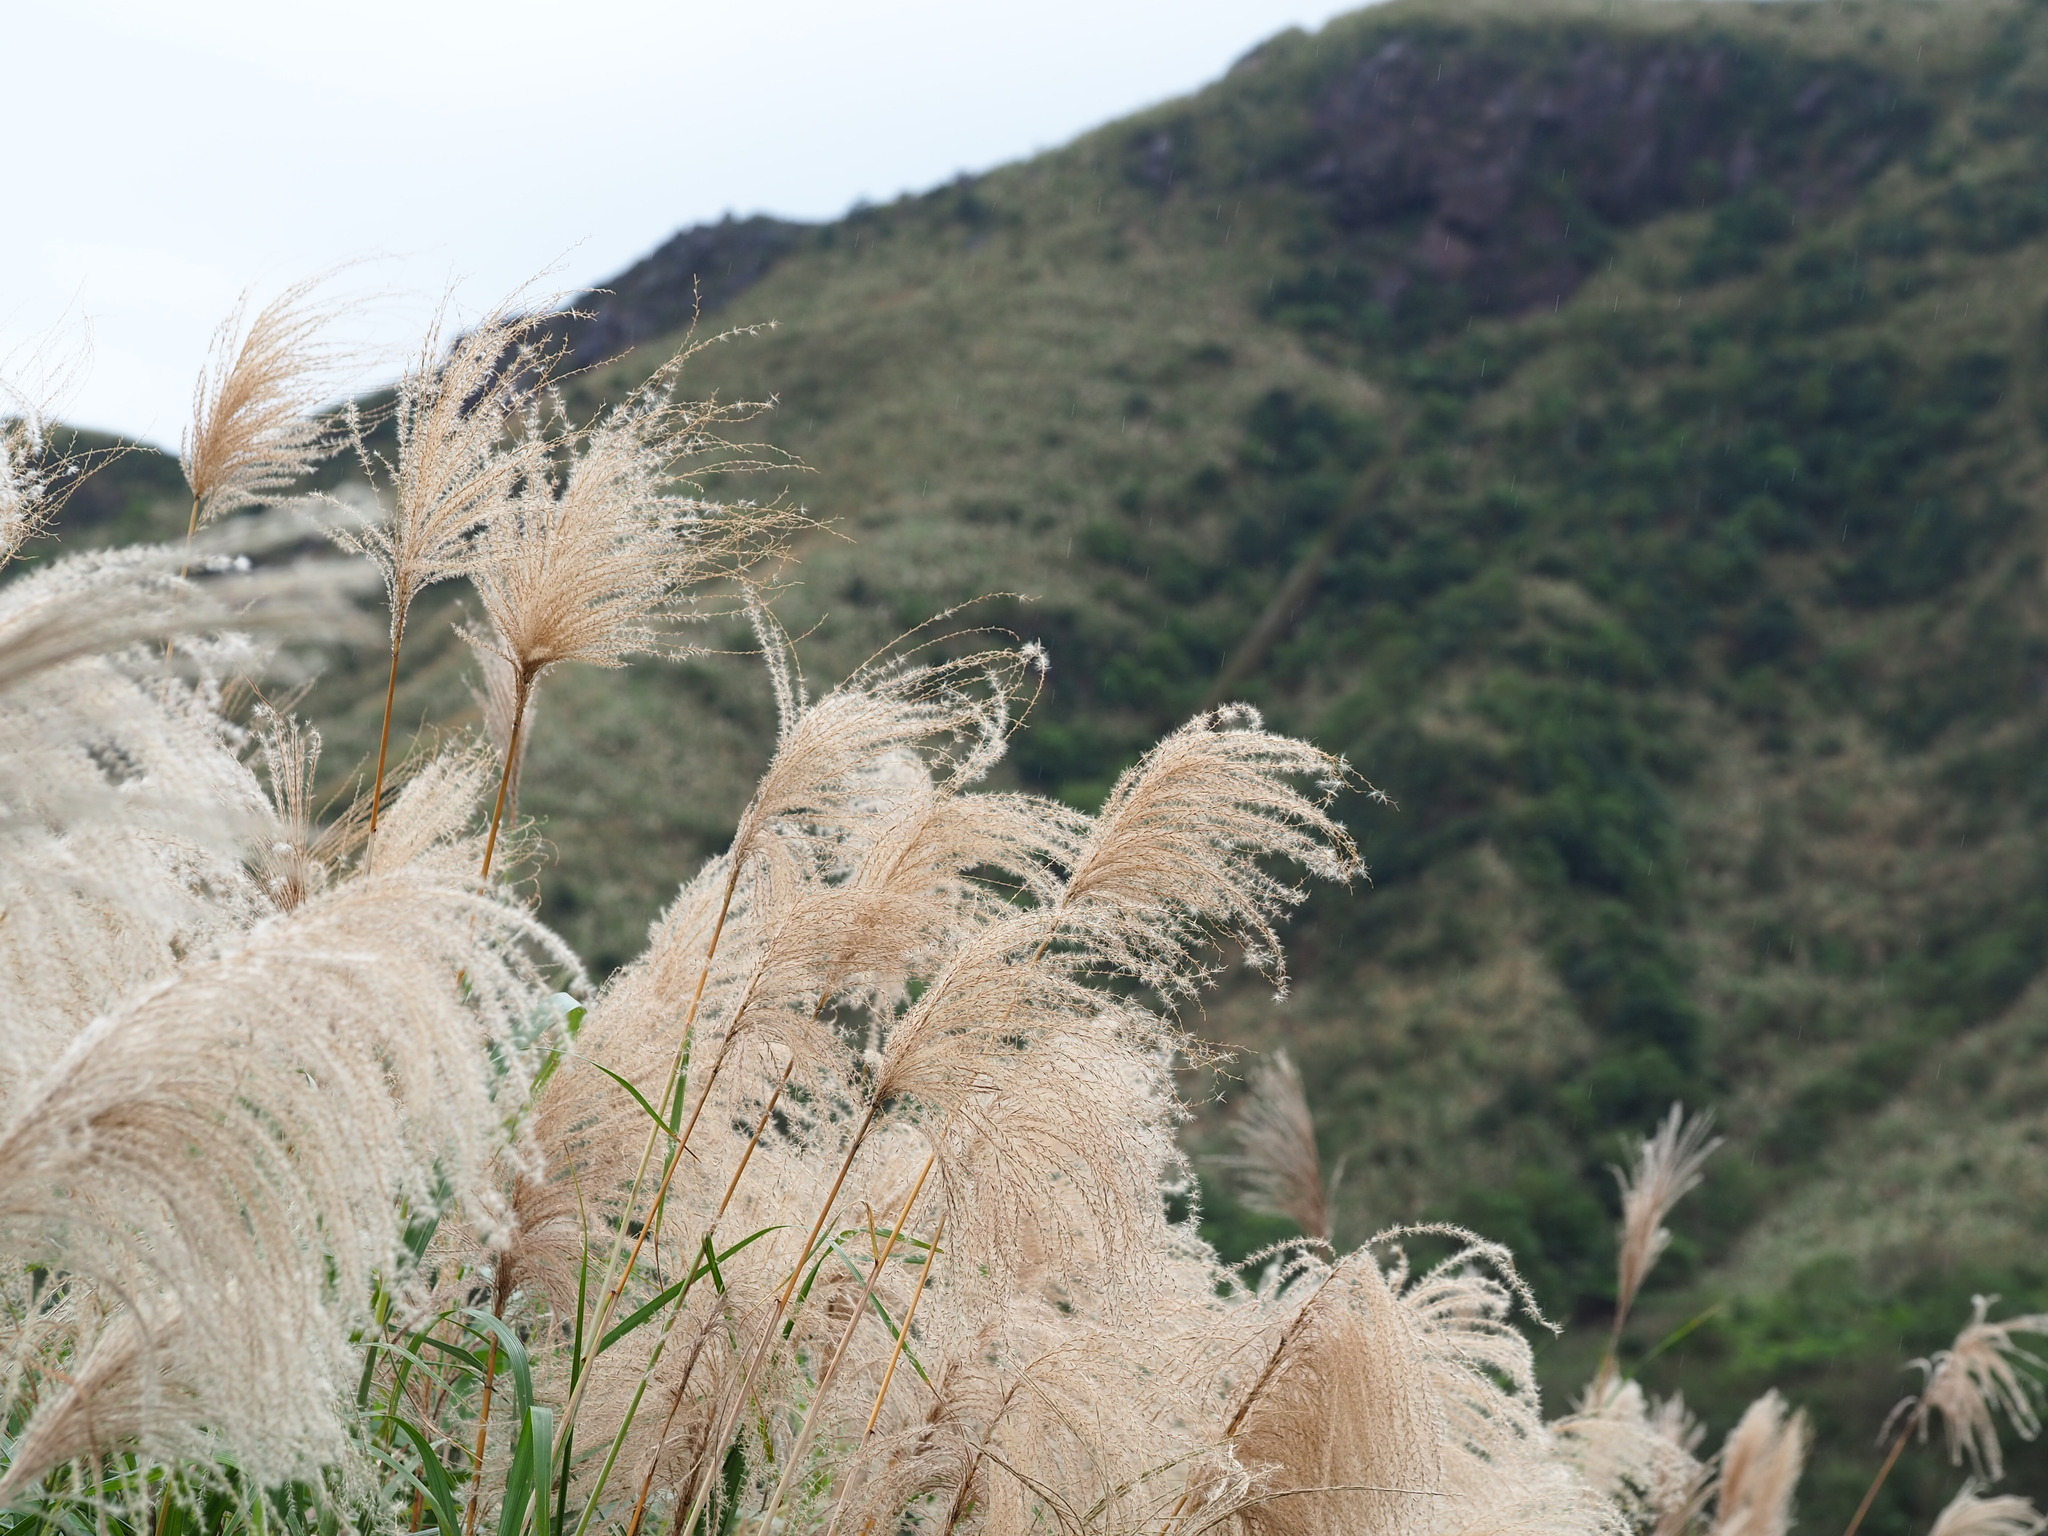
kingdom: Plantae
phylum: Tracheophyta
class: Liliopsida
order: Poales
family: Poaceae
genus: Miscanthus
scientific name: Miscanthus sinensis
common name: Chinese silvergrass
